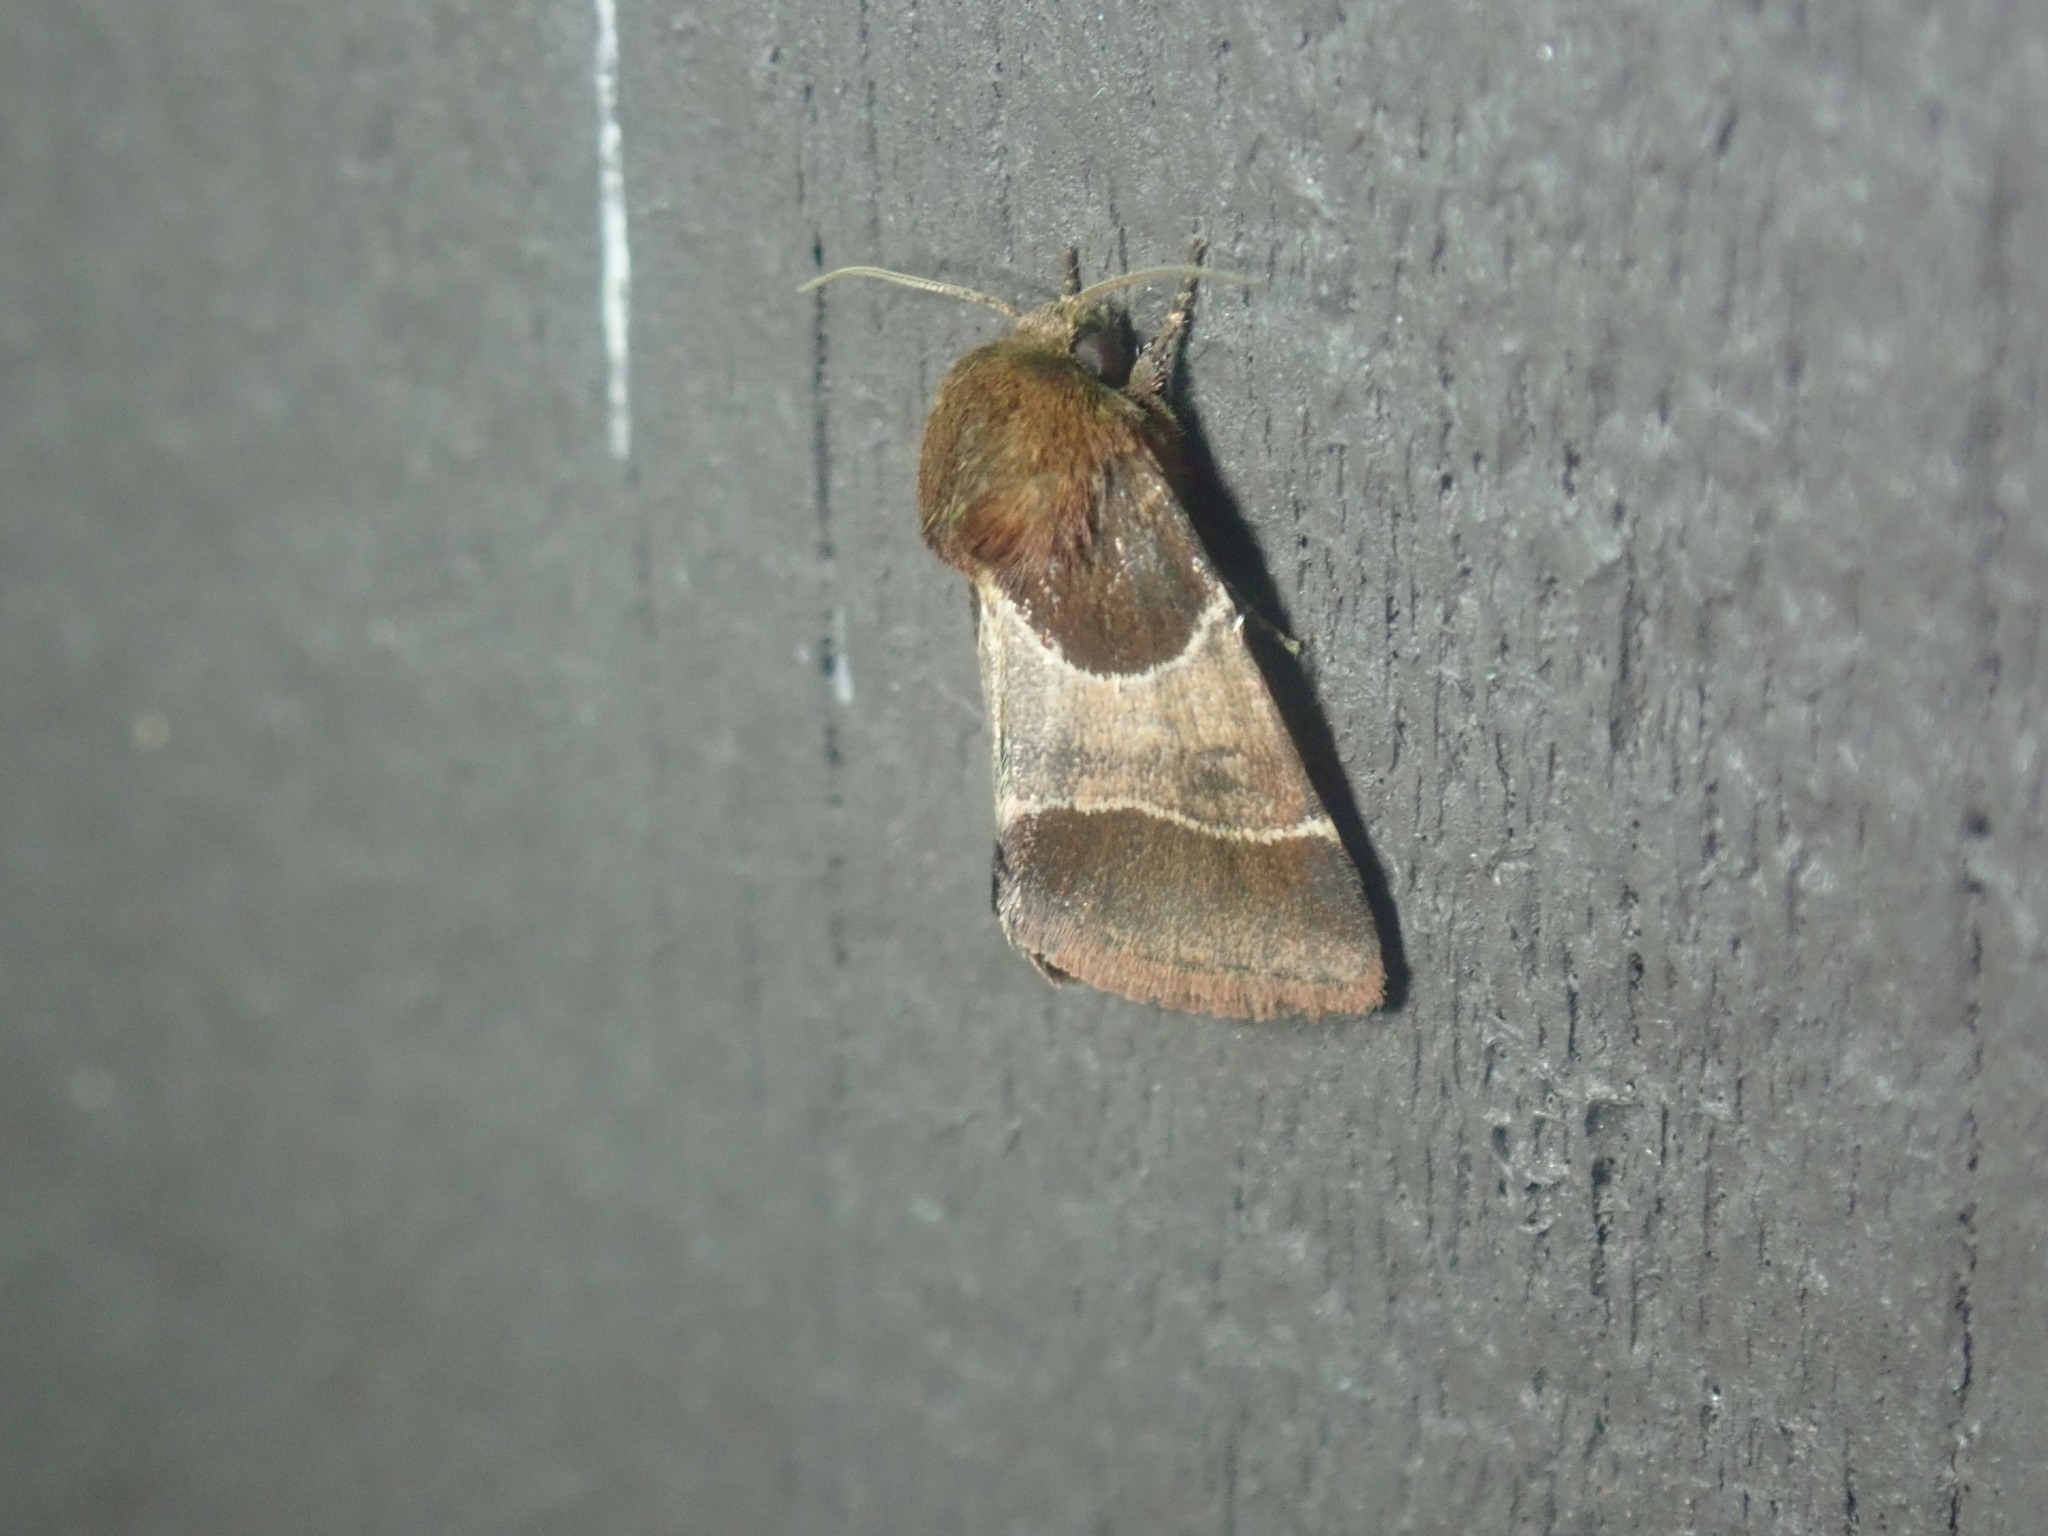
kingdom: Animalia
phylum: Arthropoda
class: Insecta
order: Lepidoptera
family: Noctuidae
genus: Schinia
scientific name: Schinia arcigera
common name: Arcigera flower moth
